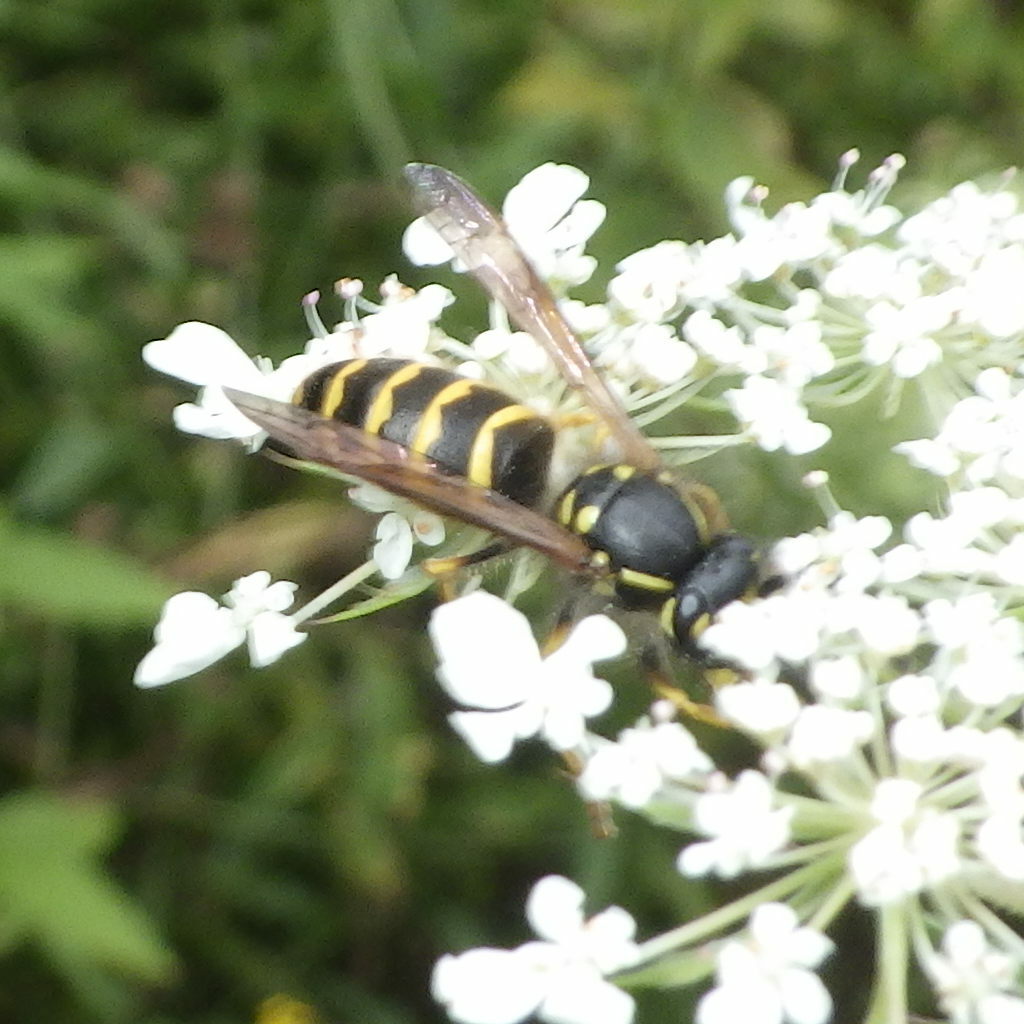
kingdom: Animalia
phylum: Arthropoda
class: Insecta
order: Hymenoptera
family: Vespidae
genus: Vespula
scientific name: Vespula alascensis
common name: Alaska yellowjacket
